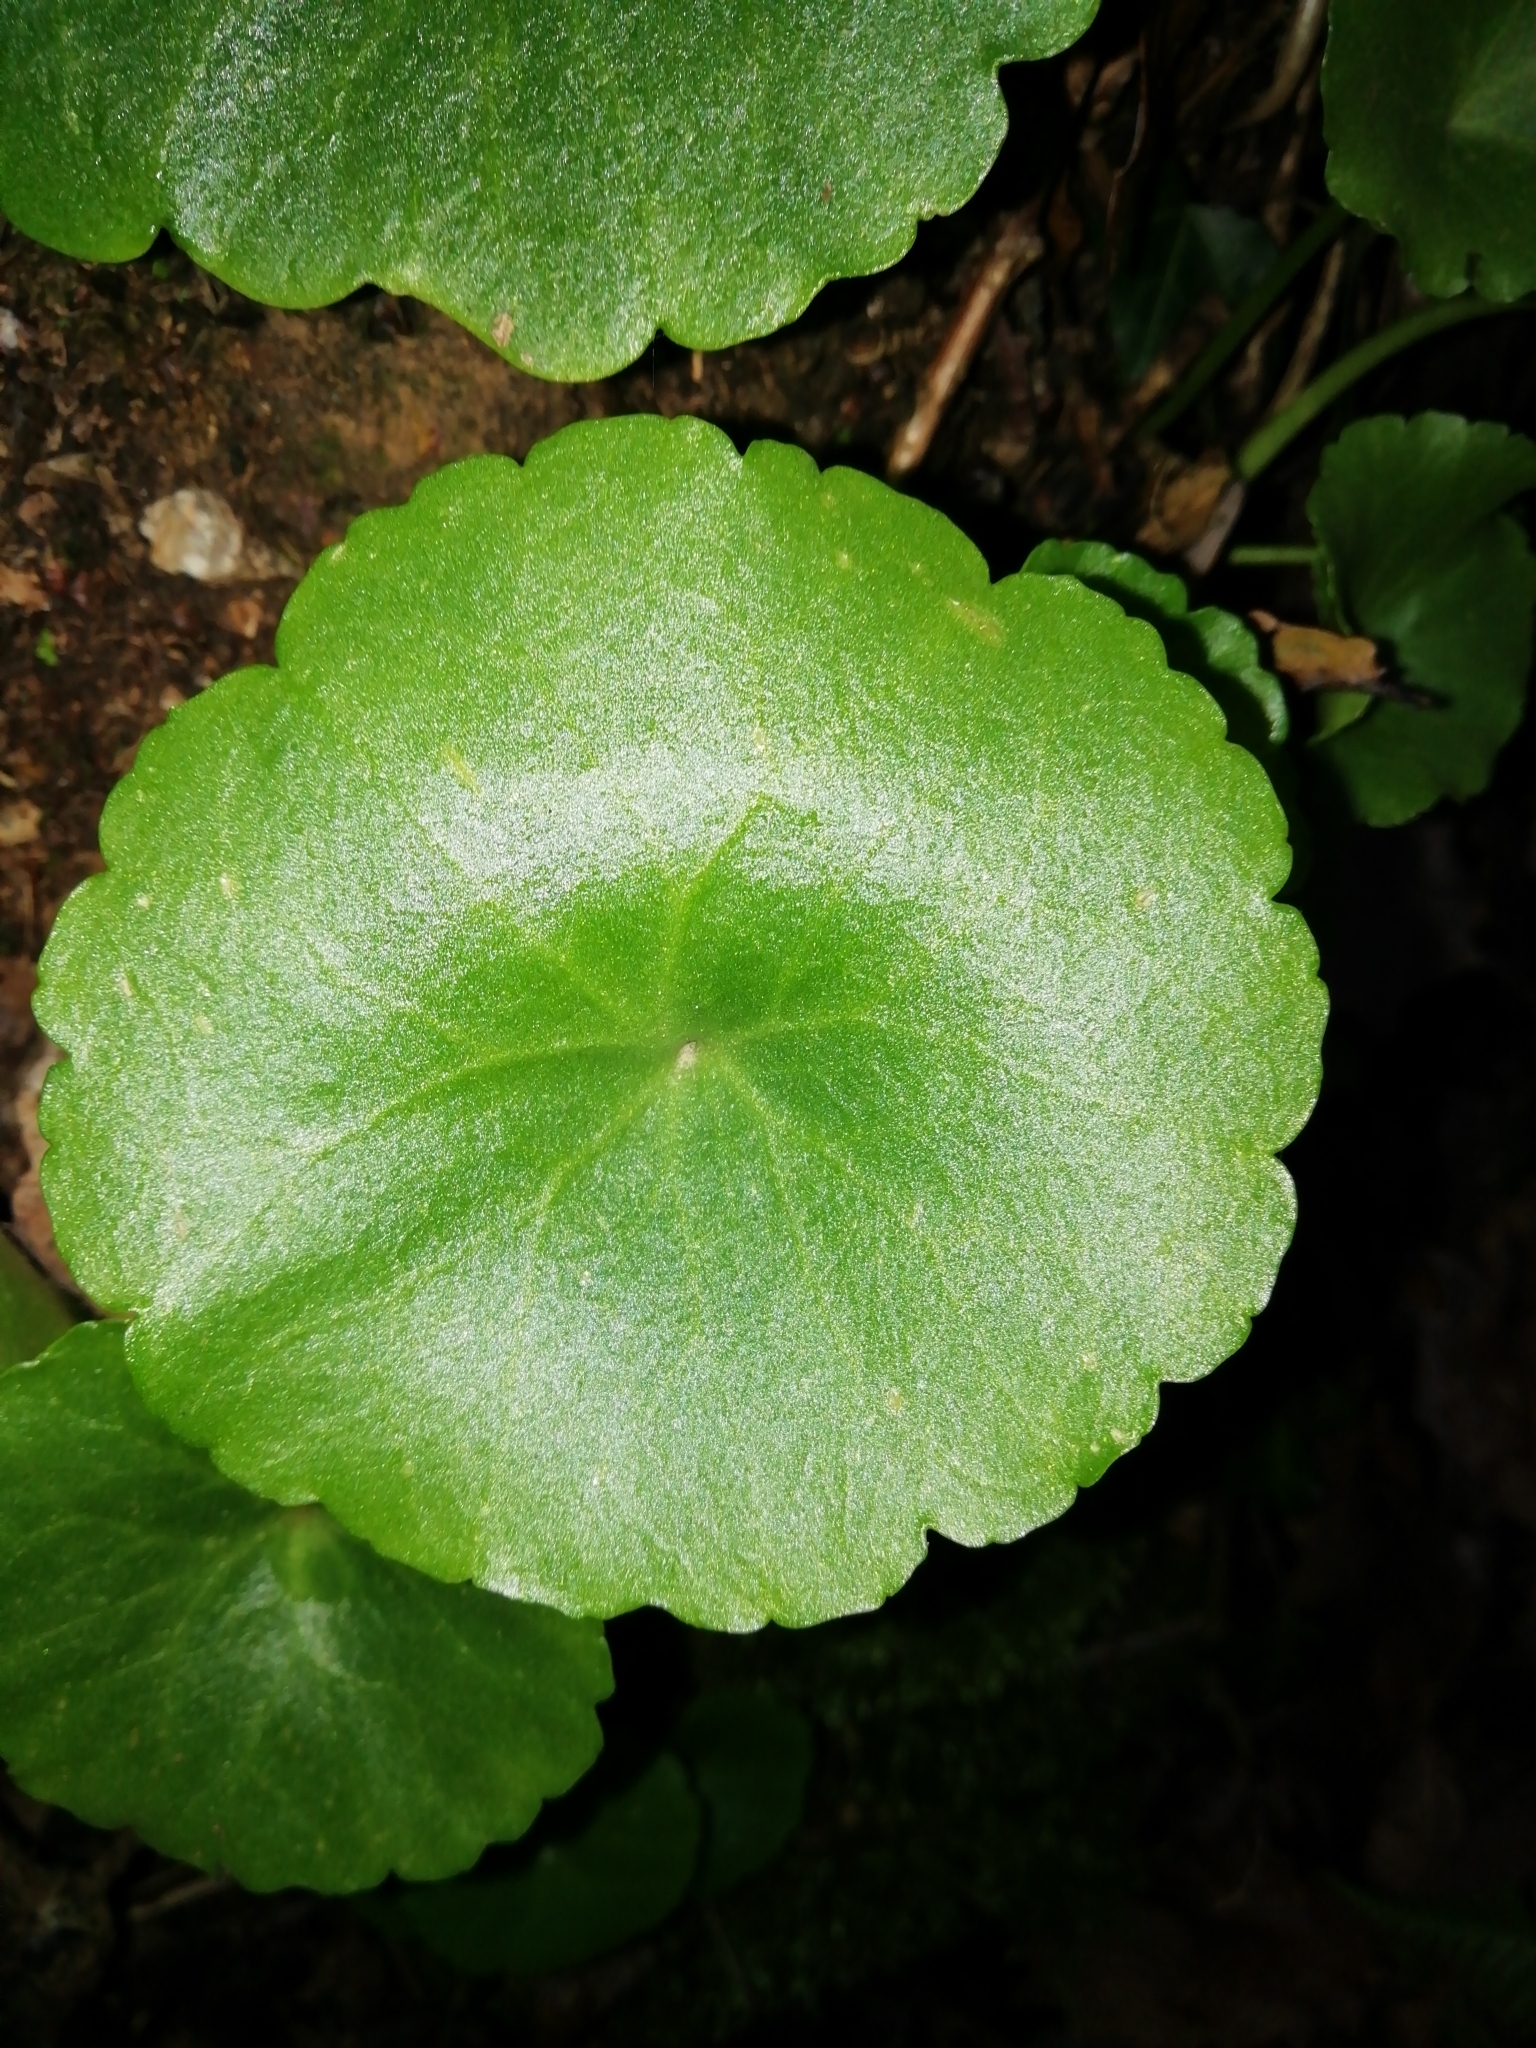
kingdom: Plantae
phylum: Tracheophyta
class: Magnoliopsida
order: Saxifragales
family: Crassulaceae
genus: Umbilicus
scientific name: Umbilicus rupestris
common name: Navelwort
